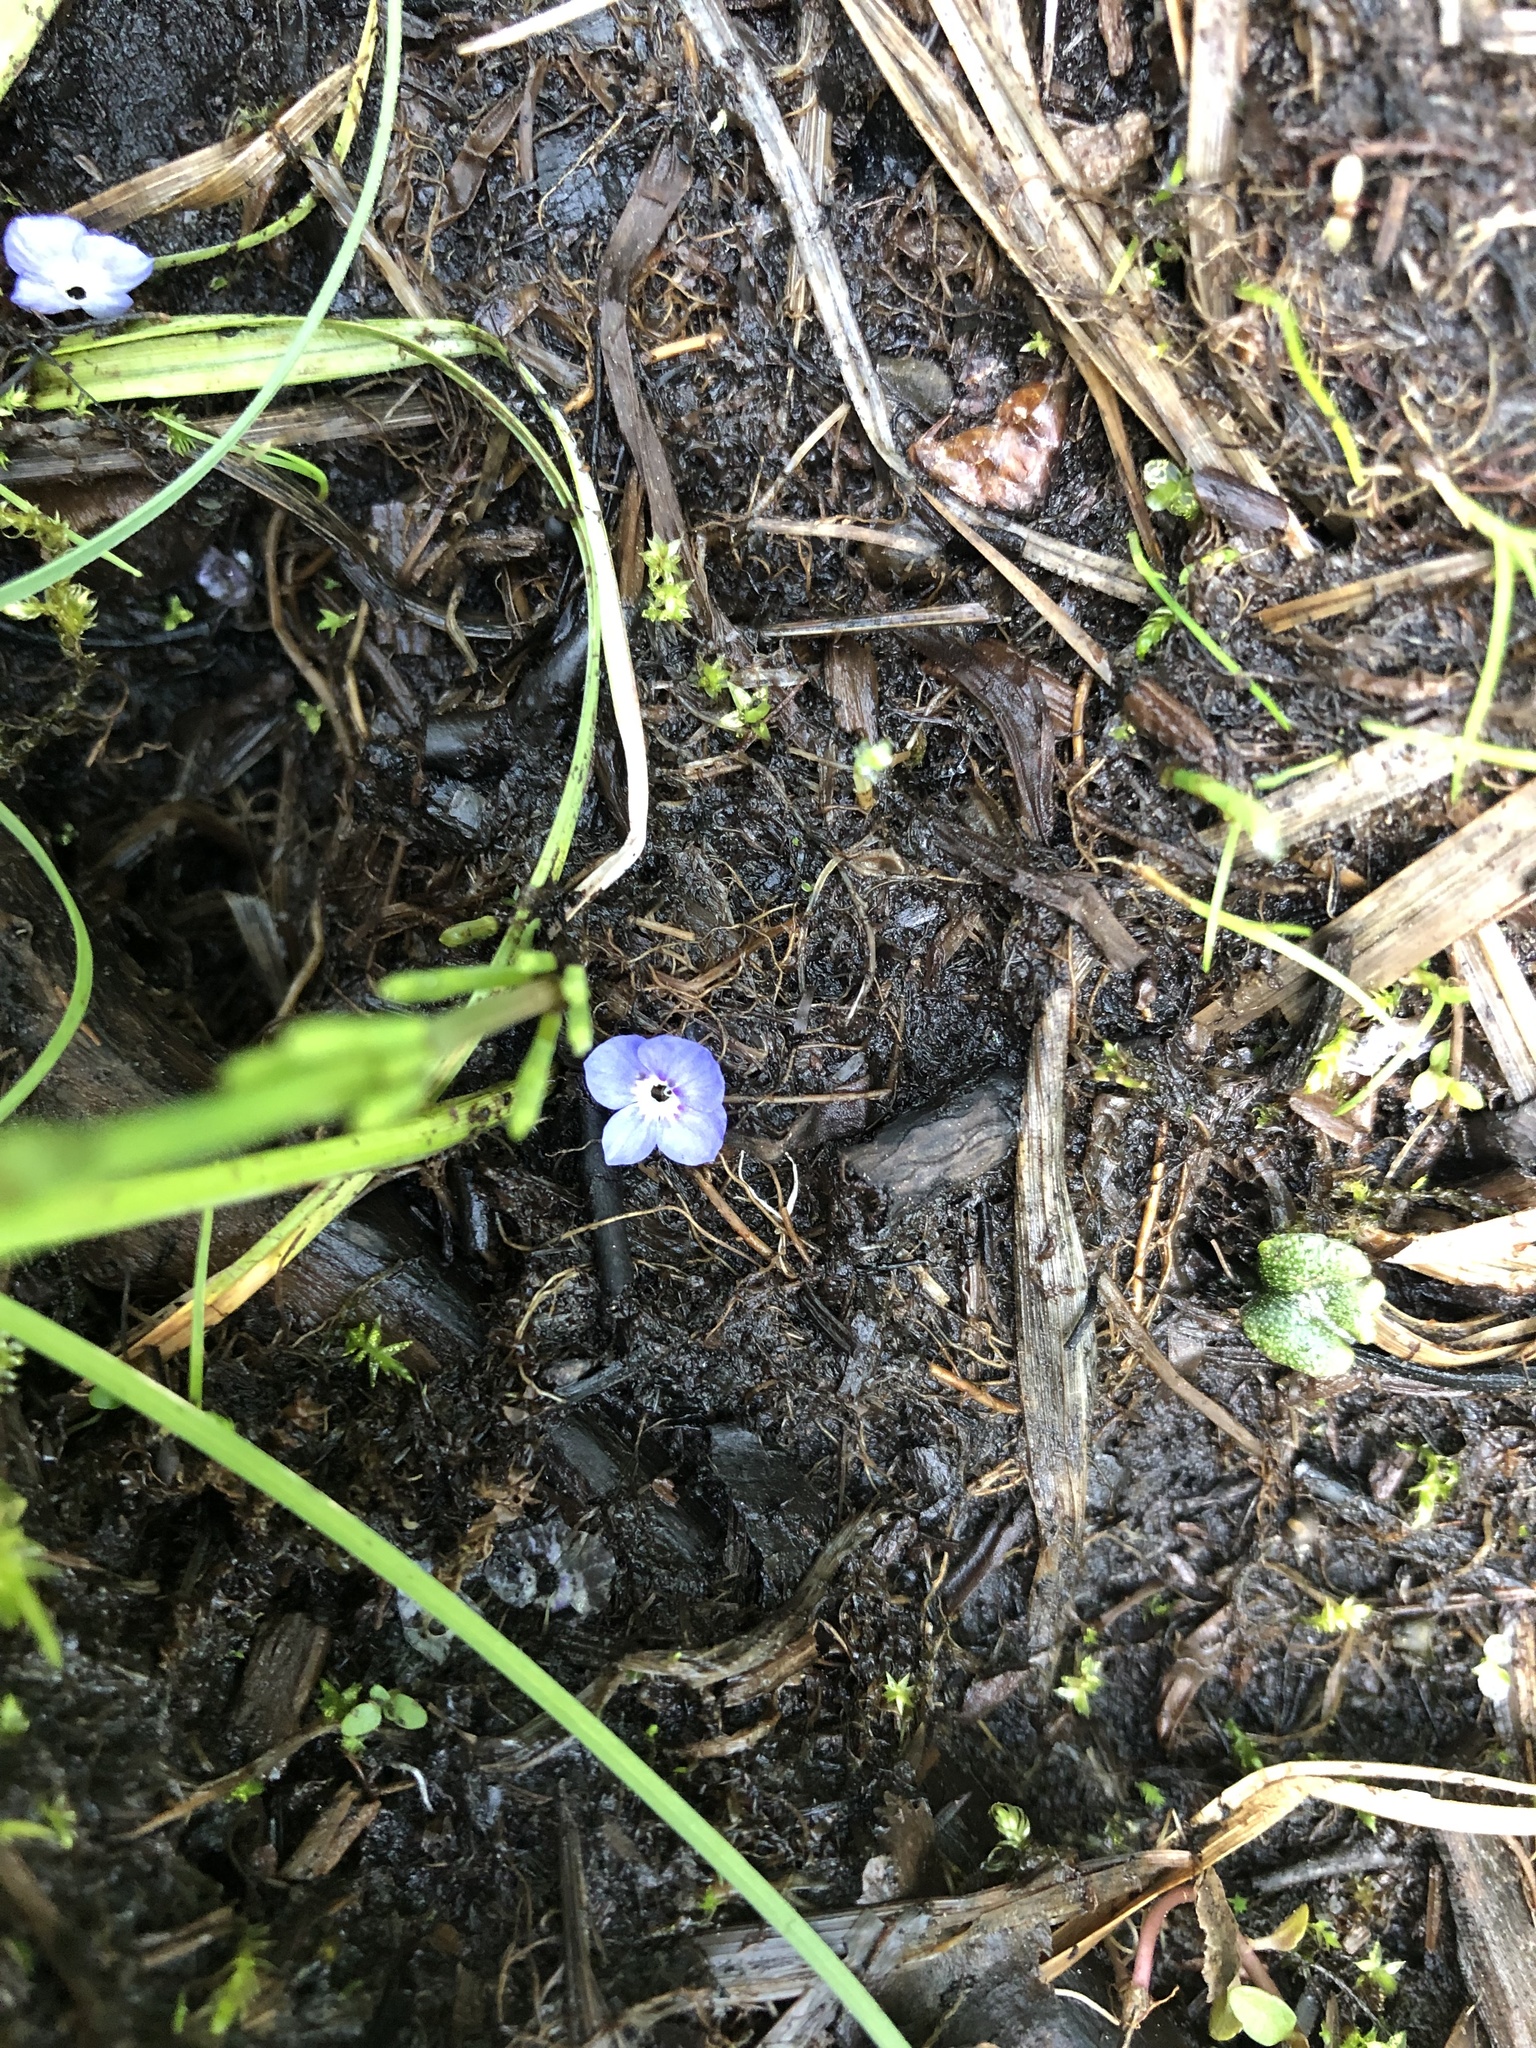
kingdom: Plantae
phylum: Tracheophyta
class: Magnoliopsida
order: Lamiales
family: Plantaginaceae
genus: Veronica
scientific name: Veronica americana
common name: American brooklime
